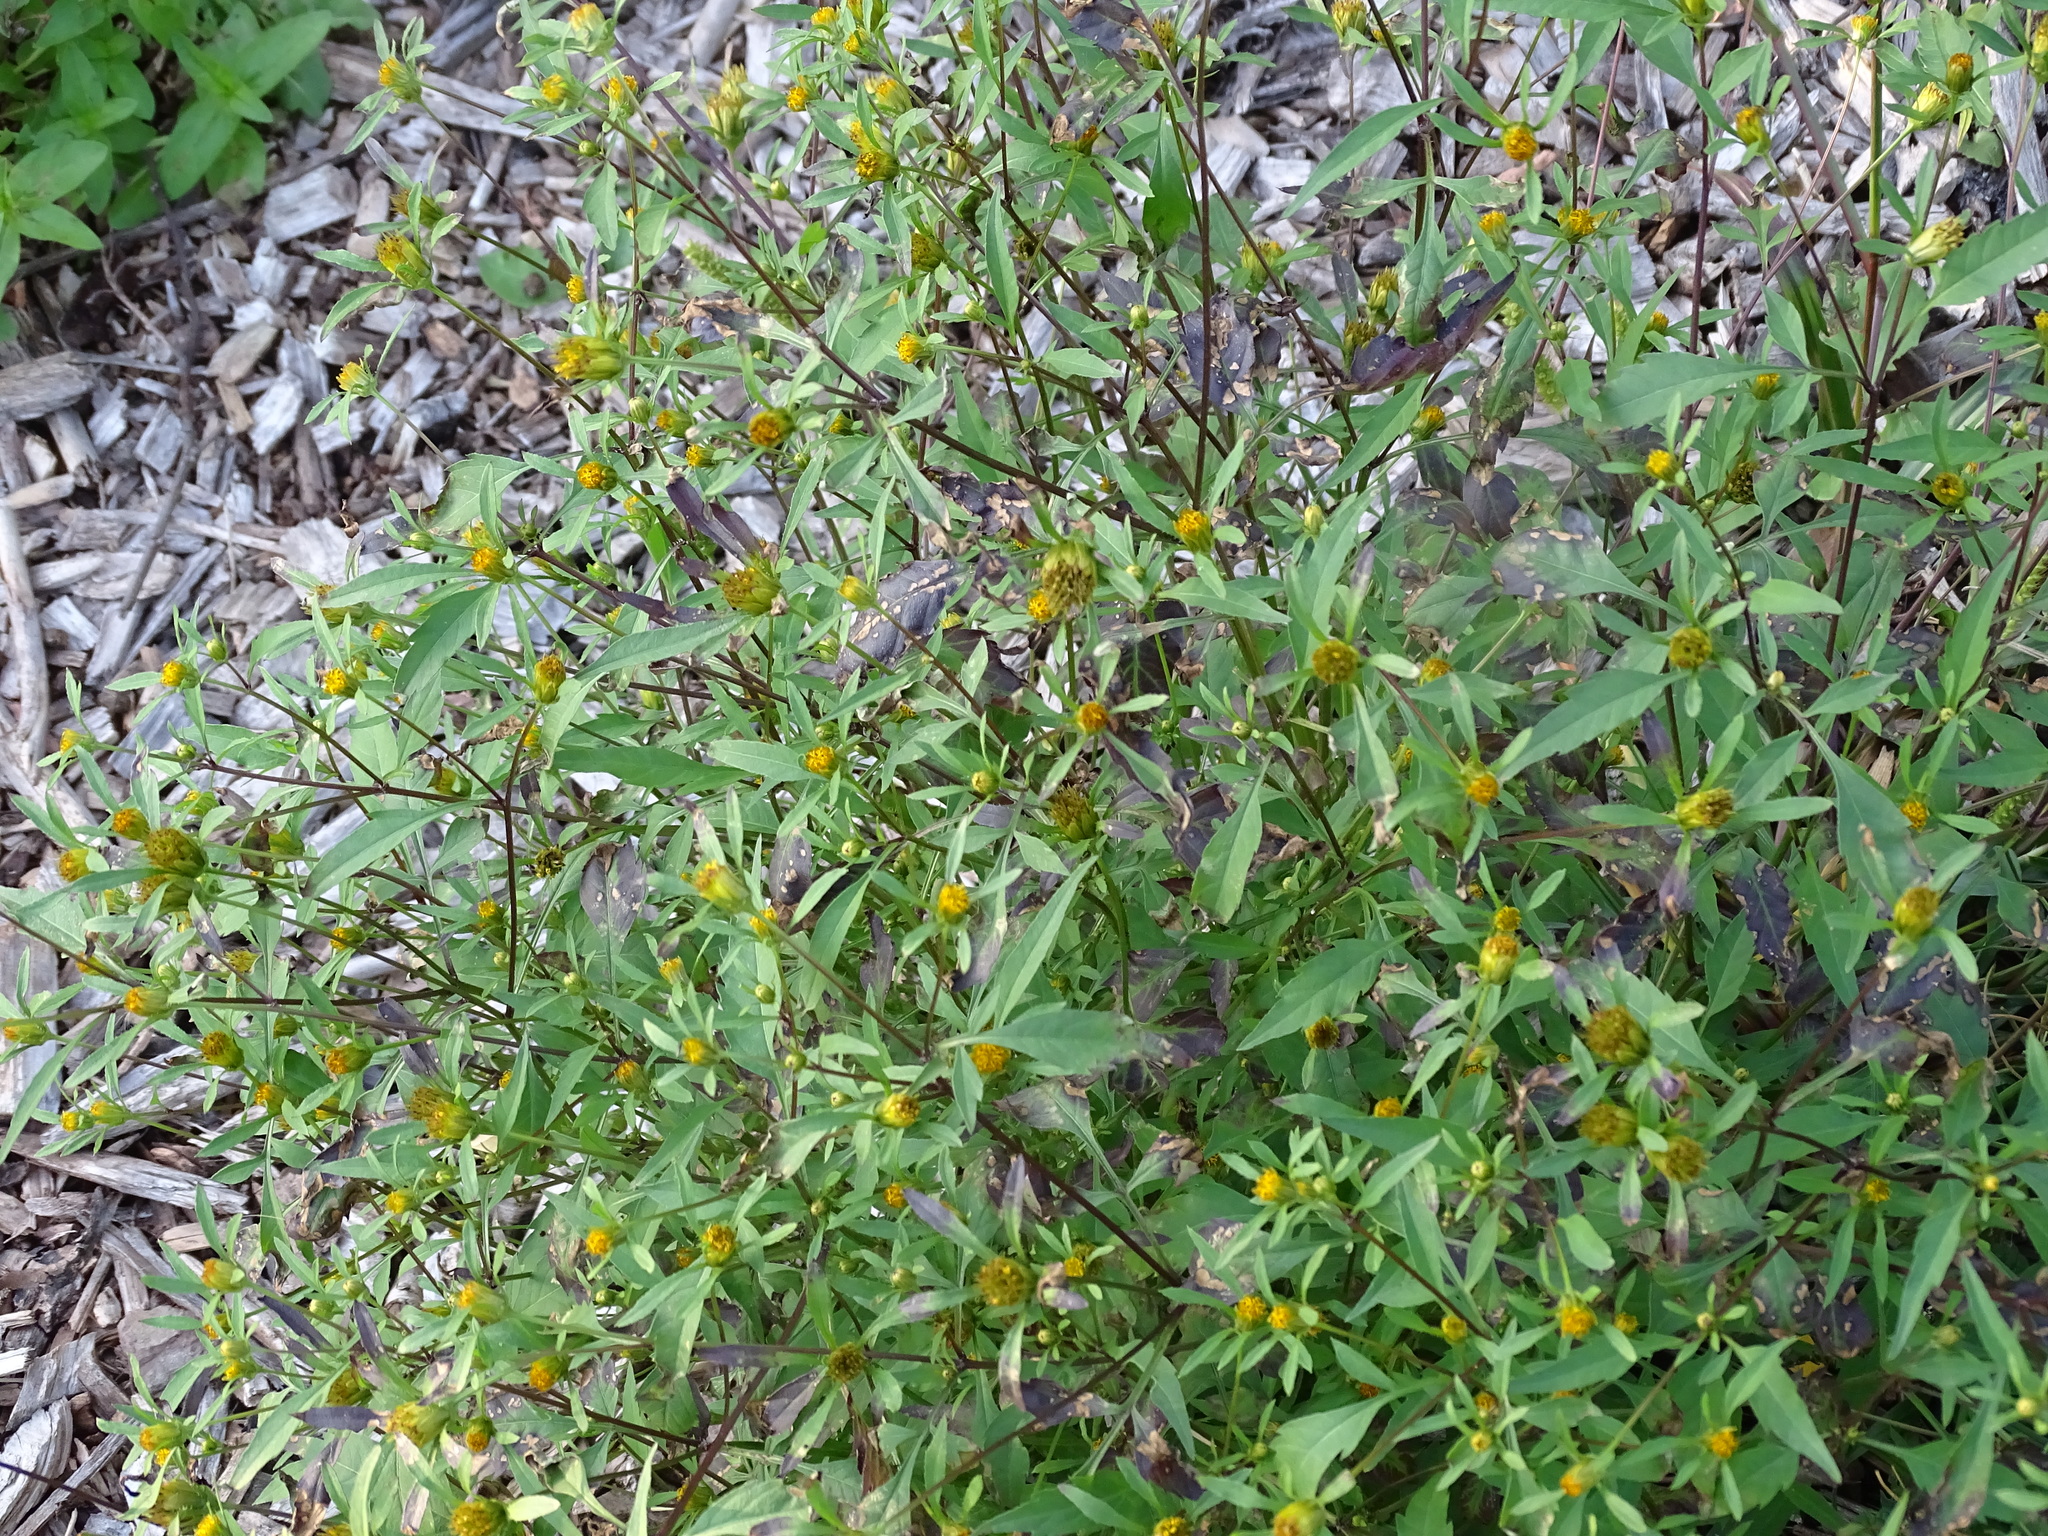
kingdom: Plantae
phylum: Tracheophyta
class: Magnoliopsida
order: Asterales
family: Asteraceae
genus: Bidens
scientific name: Bidens frondosa
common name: Beggarticks
